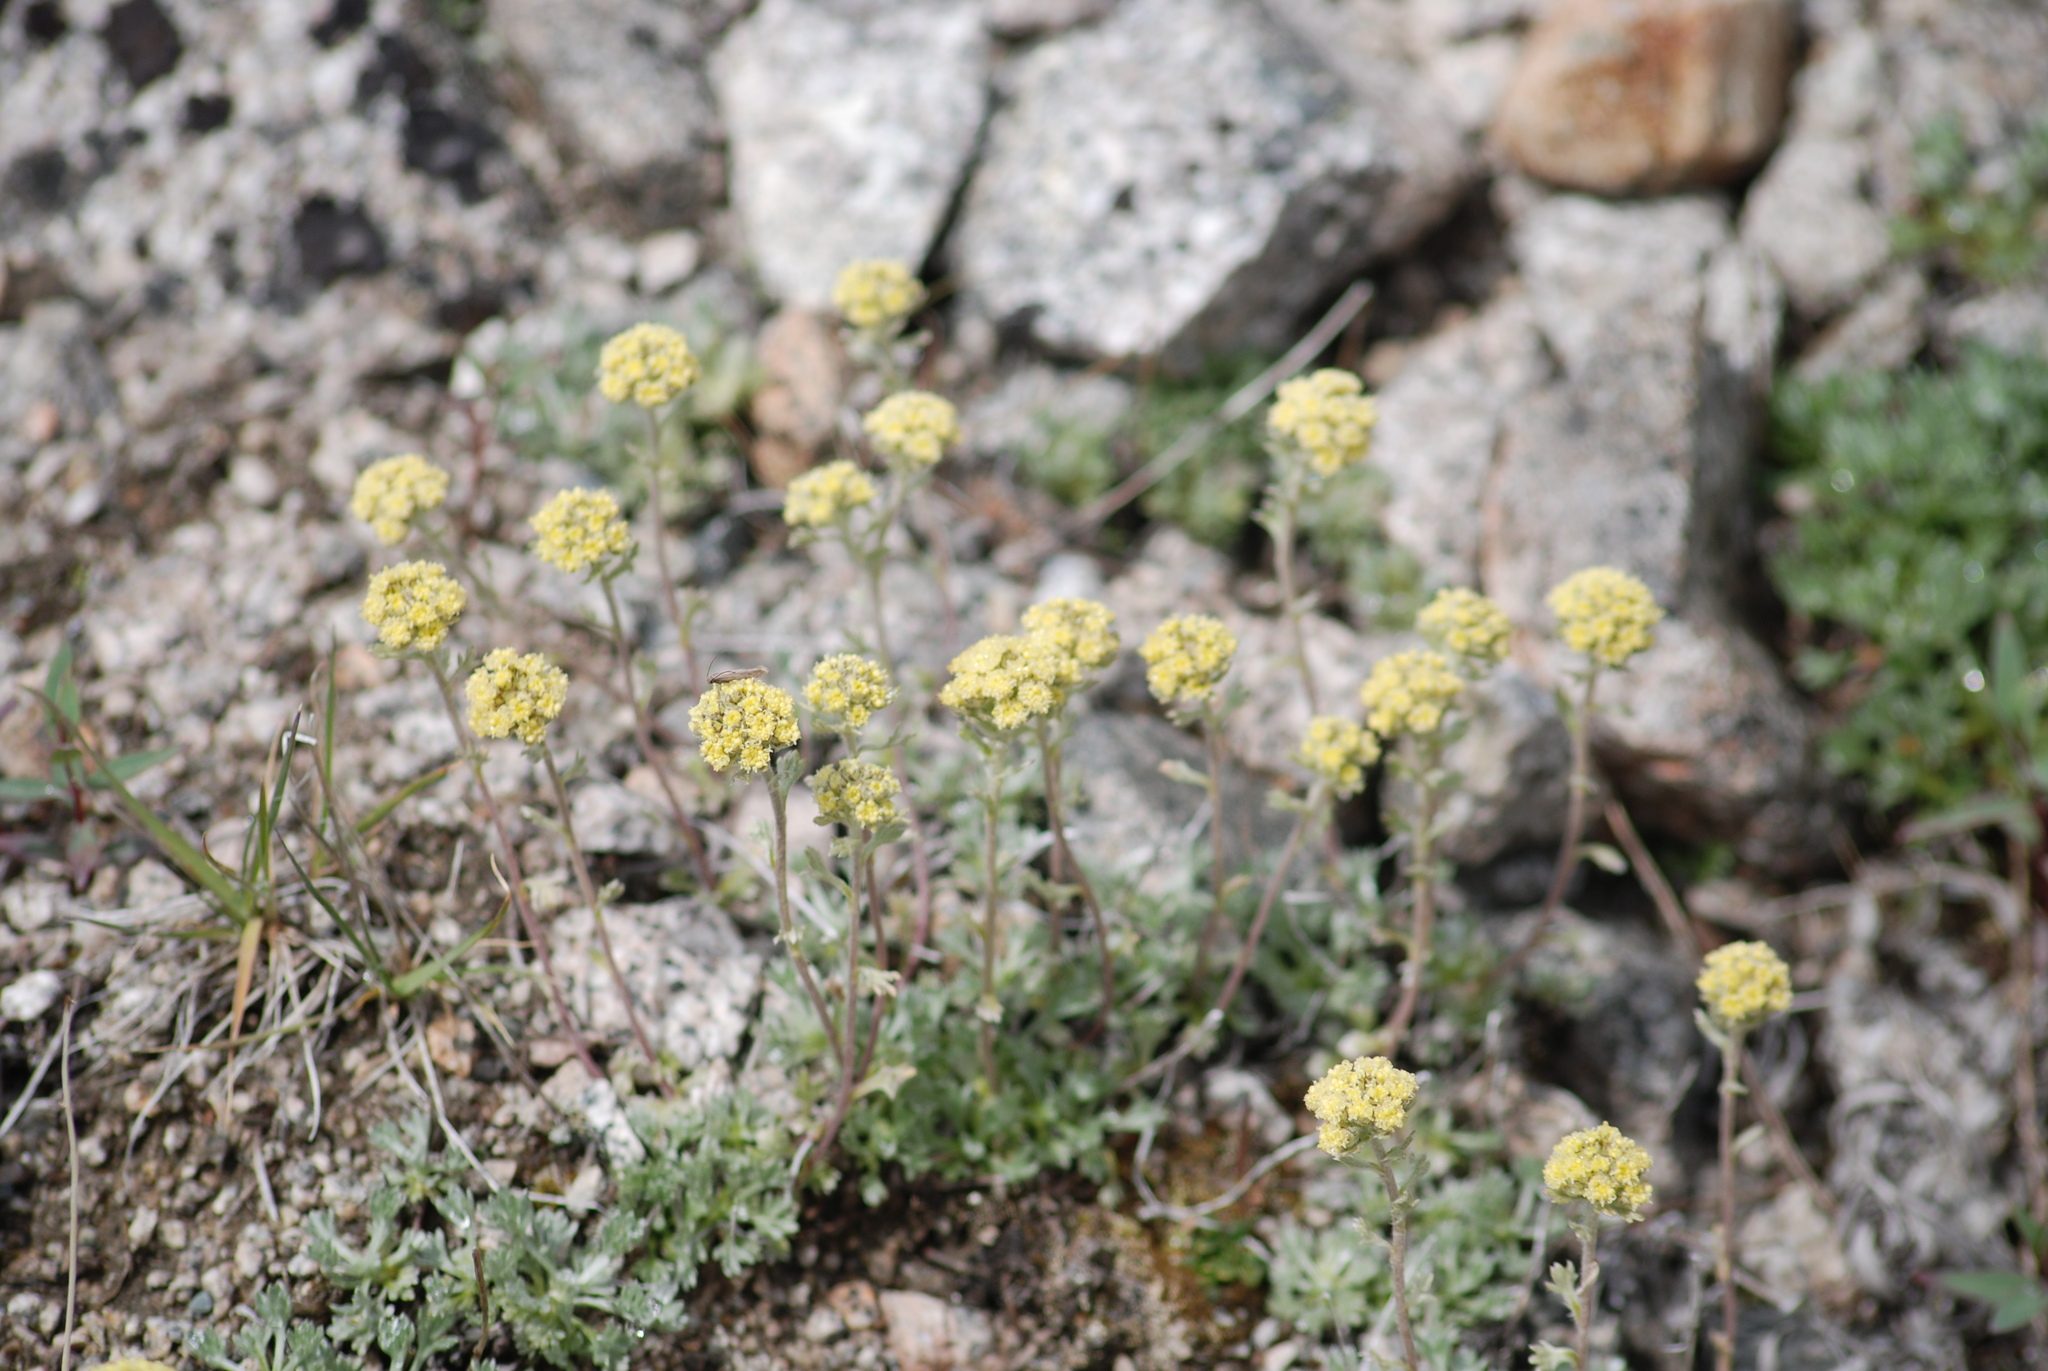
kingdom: Plantae
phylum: Tracheophyta
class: Magnoliopsida
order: Asterales
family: Asteraceae
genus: Artemisia
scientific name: Artemisia glomerata
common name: Pacific alpine wormwood
